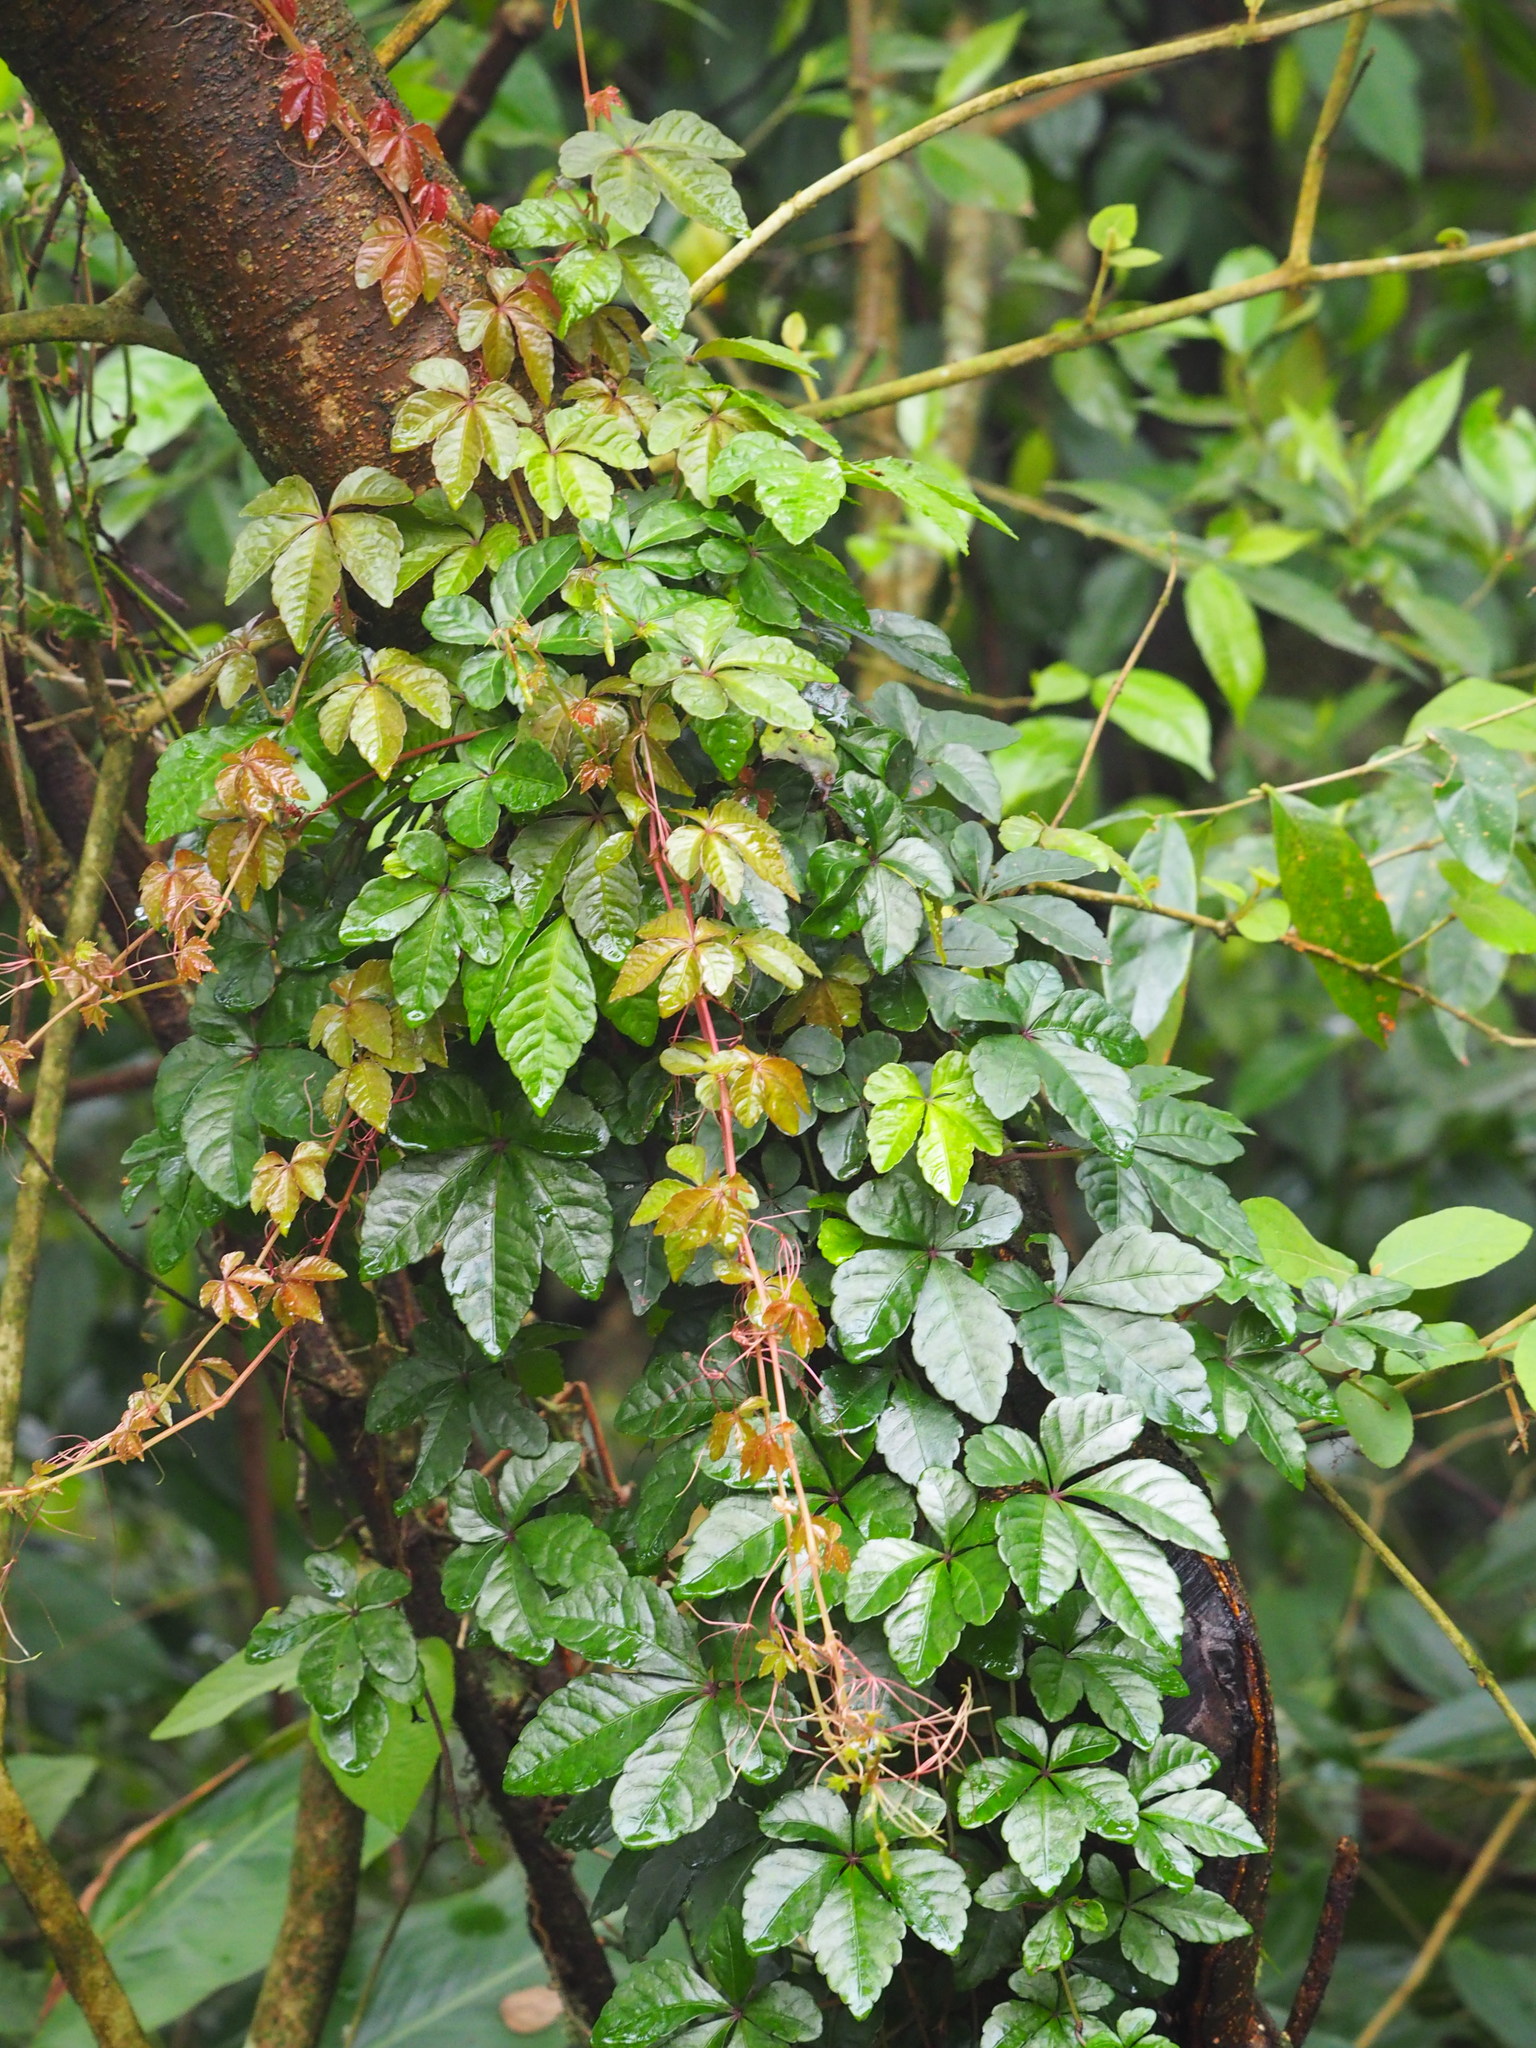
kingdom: Plantae
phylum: Tracheophyta
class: Magnoliopsida
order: Vitales
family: Vitaceae
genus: Tetrastigma
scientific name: Tetrastigma obtectum
